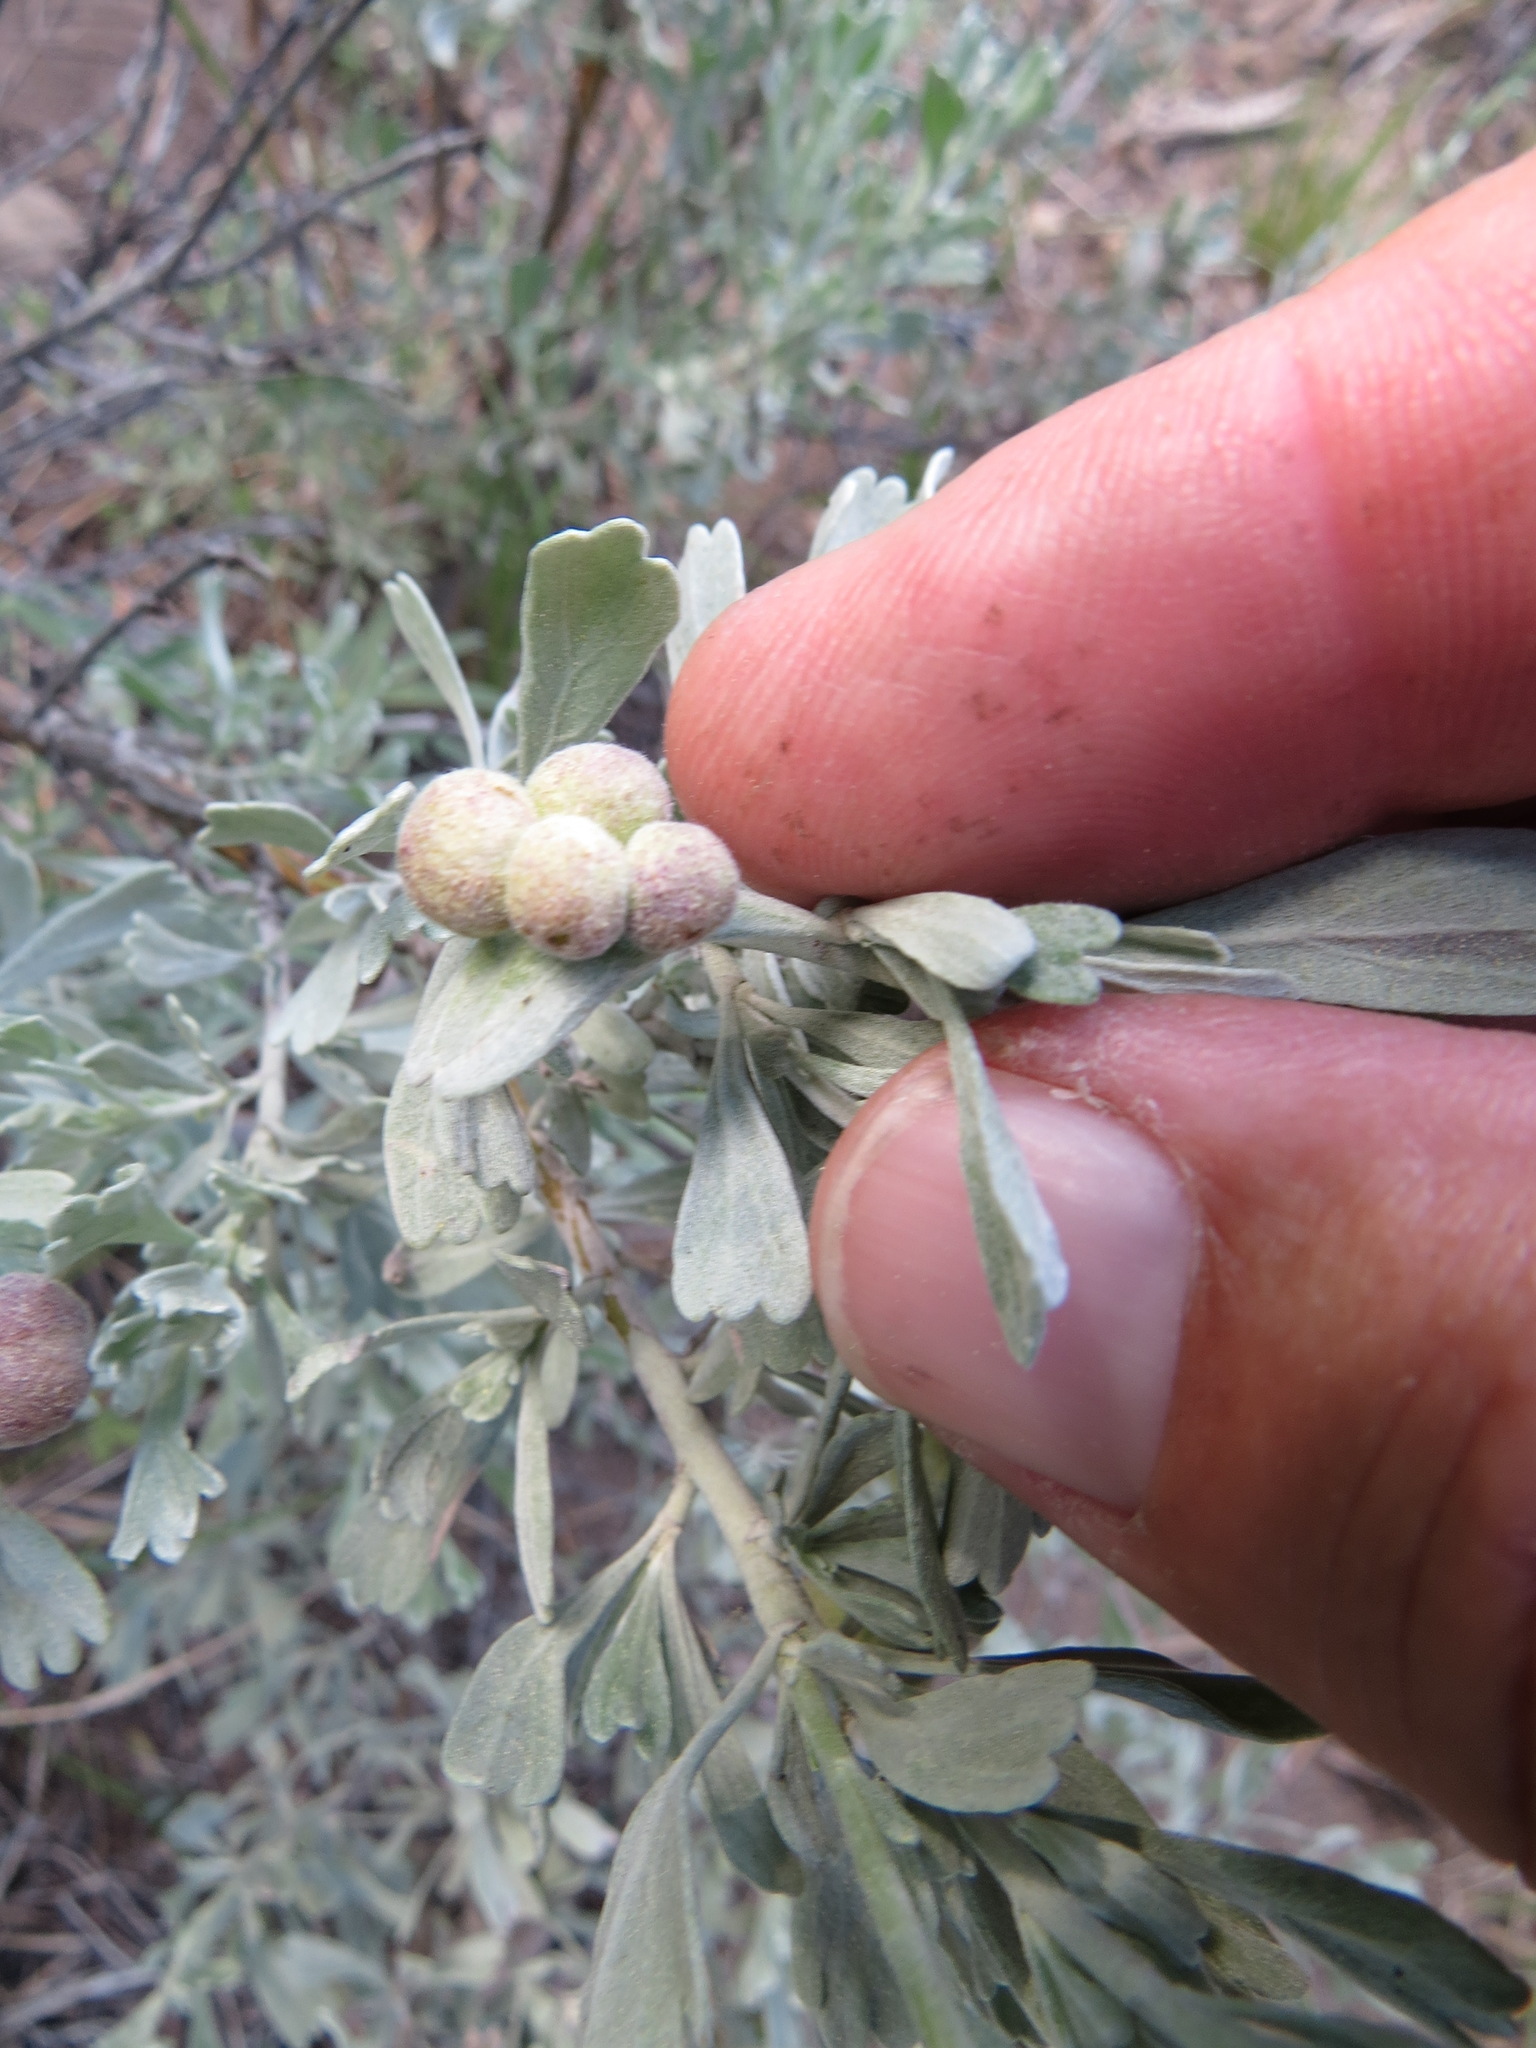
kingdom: Animalia
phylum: Arthropoda
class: Insecta
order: Diptera
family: Cecidomyiidae
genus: Rhopalomyia
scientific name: Rhopalomyia pomum
